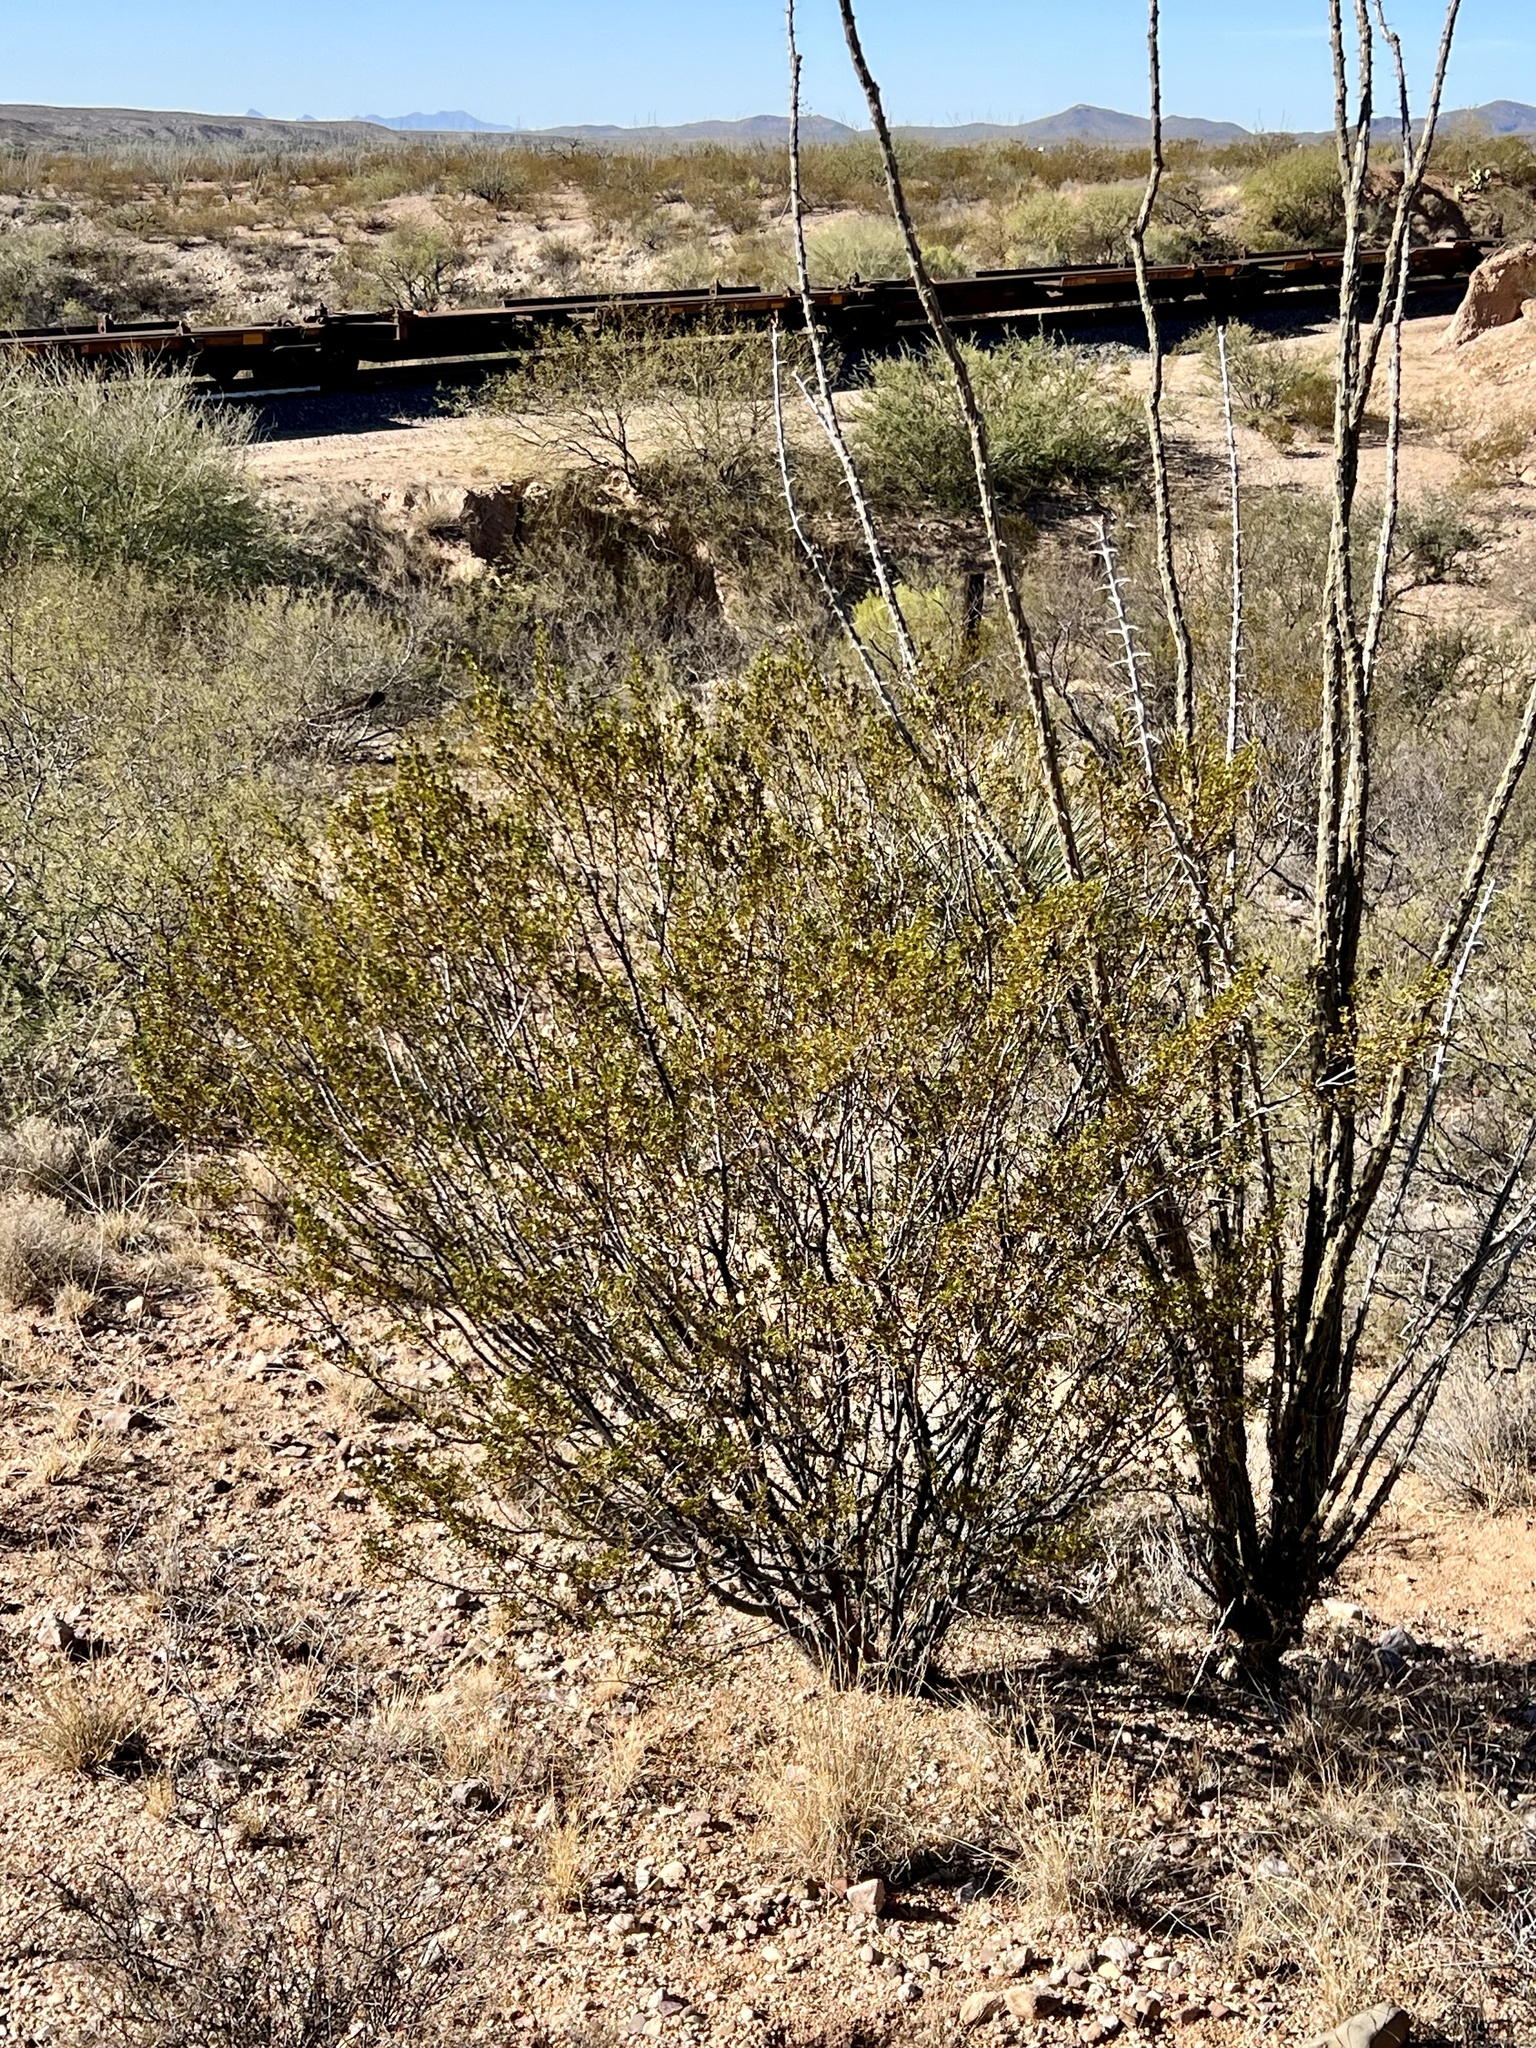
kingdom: Plantae
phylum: Tracheophyta
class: Magnoliopsida
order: Zygophyllales
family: Zygophyllaceae
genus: Larrea
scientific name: Larrea tridentata
